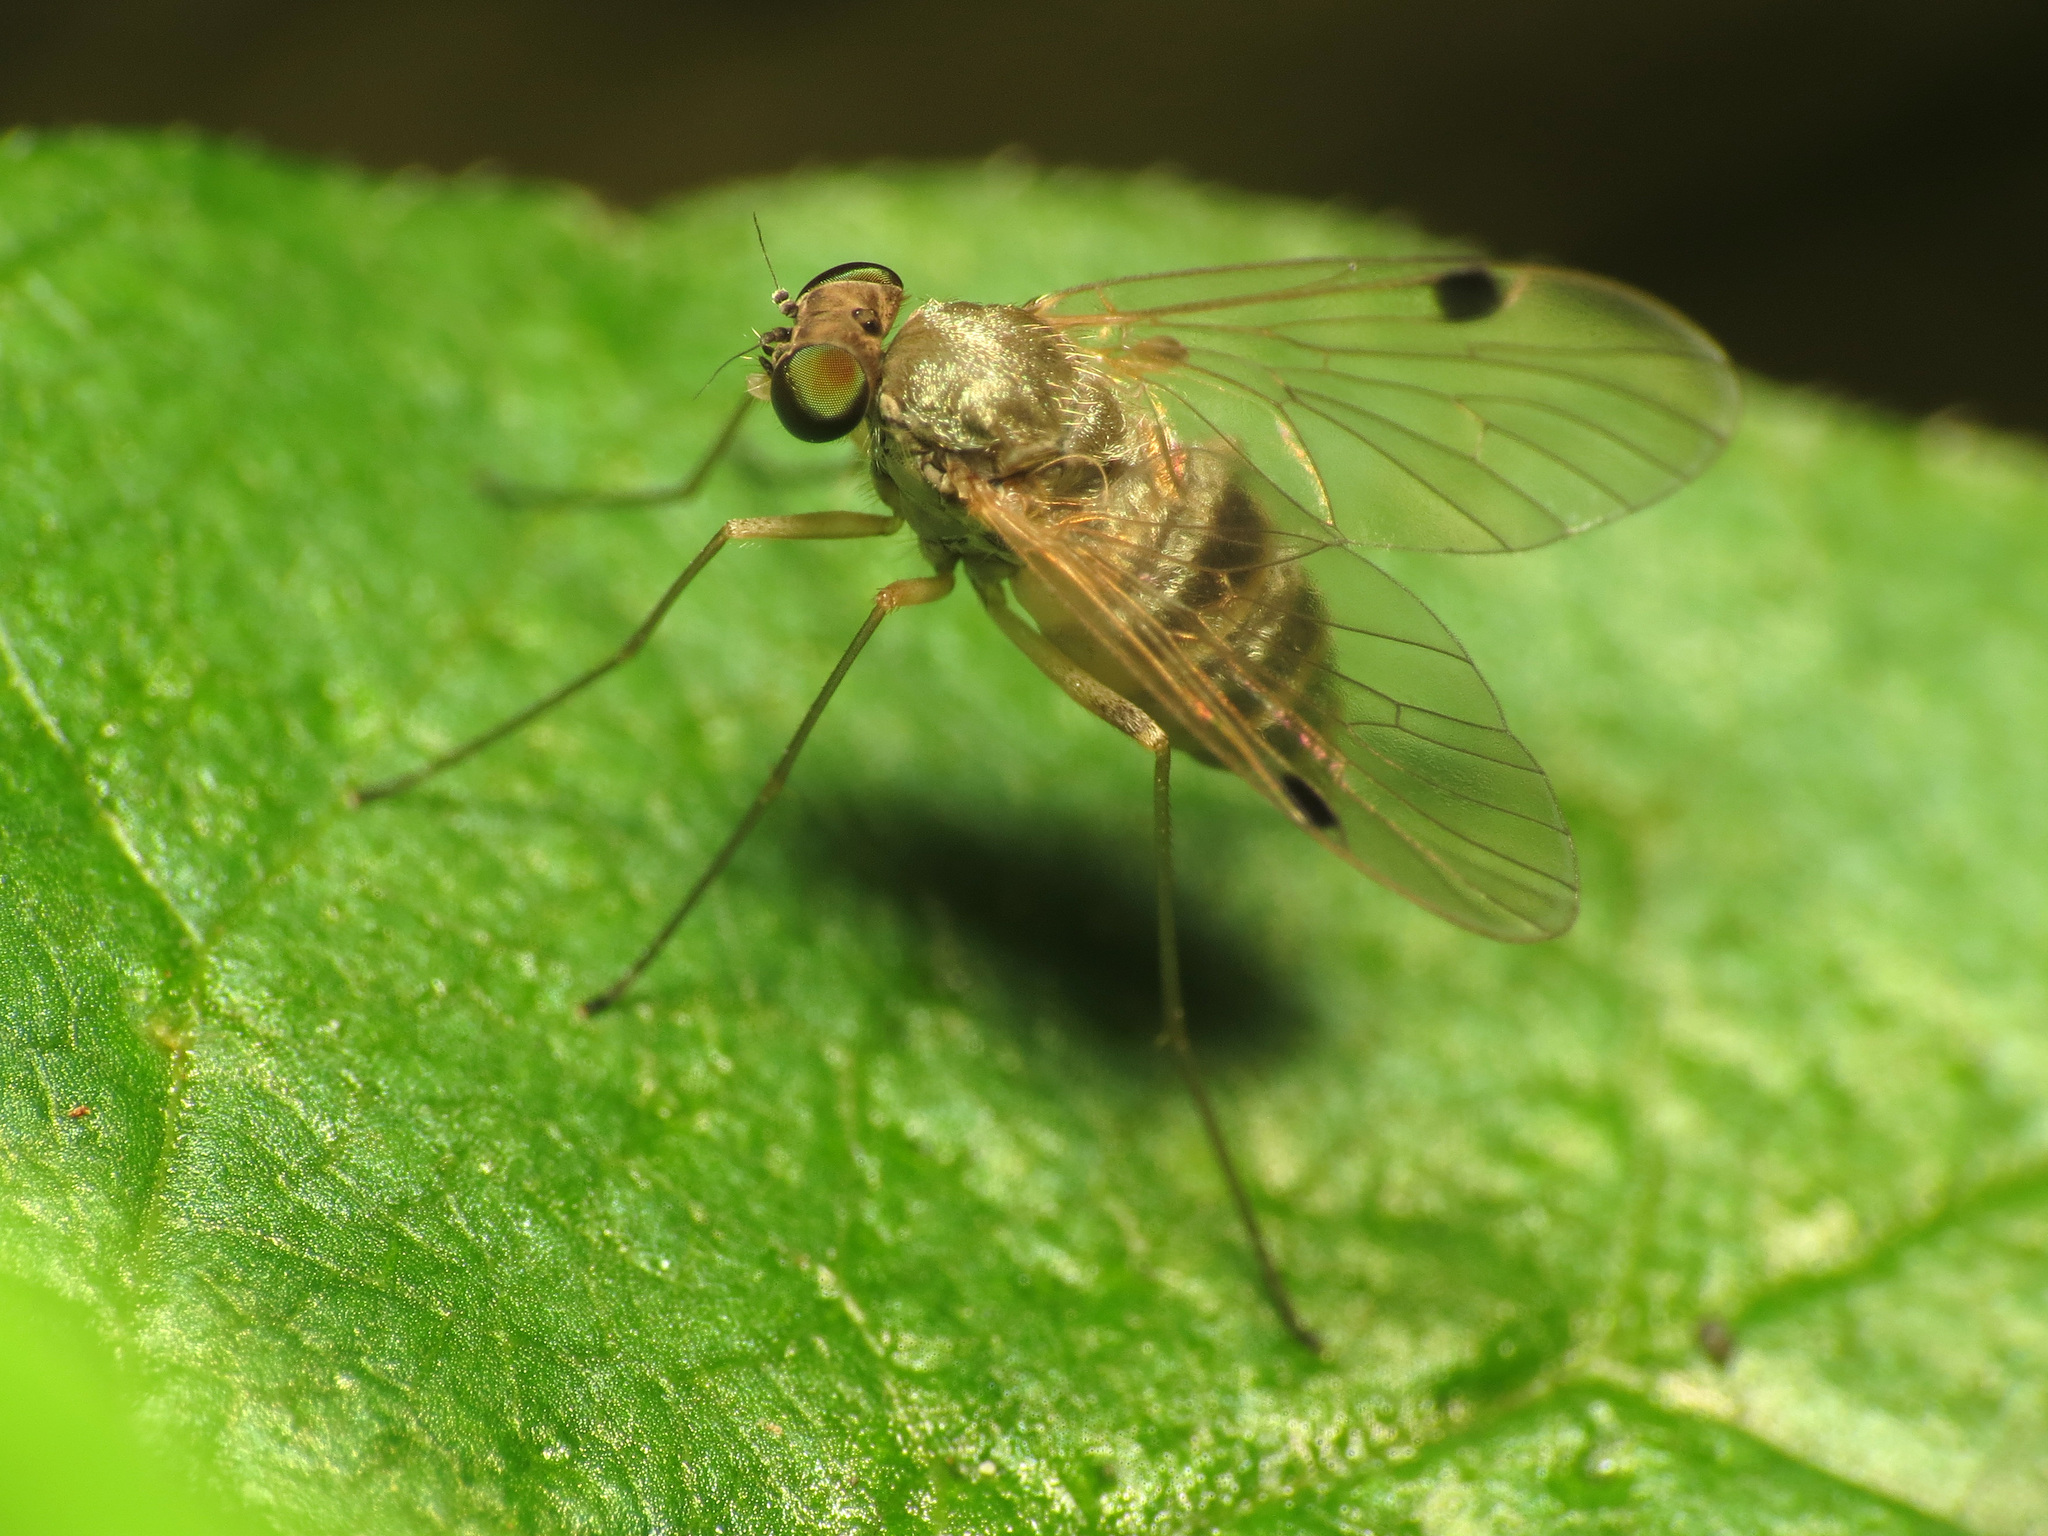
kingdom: Animalia
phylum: Arthropoda
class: Insecta
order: Diptera
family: Rhagionidae
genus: Chrysopilus
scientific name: Chrysopilus modestus
